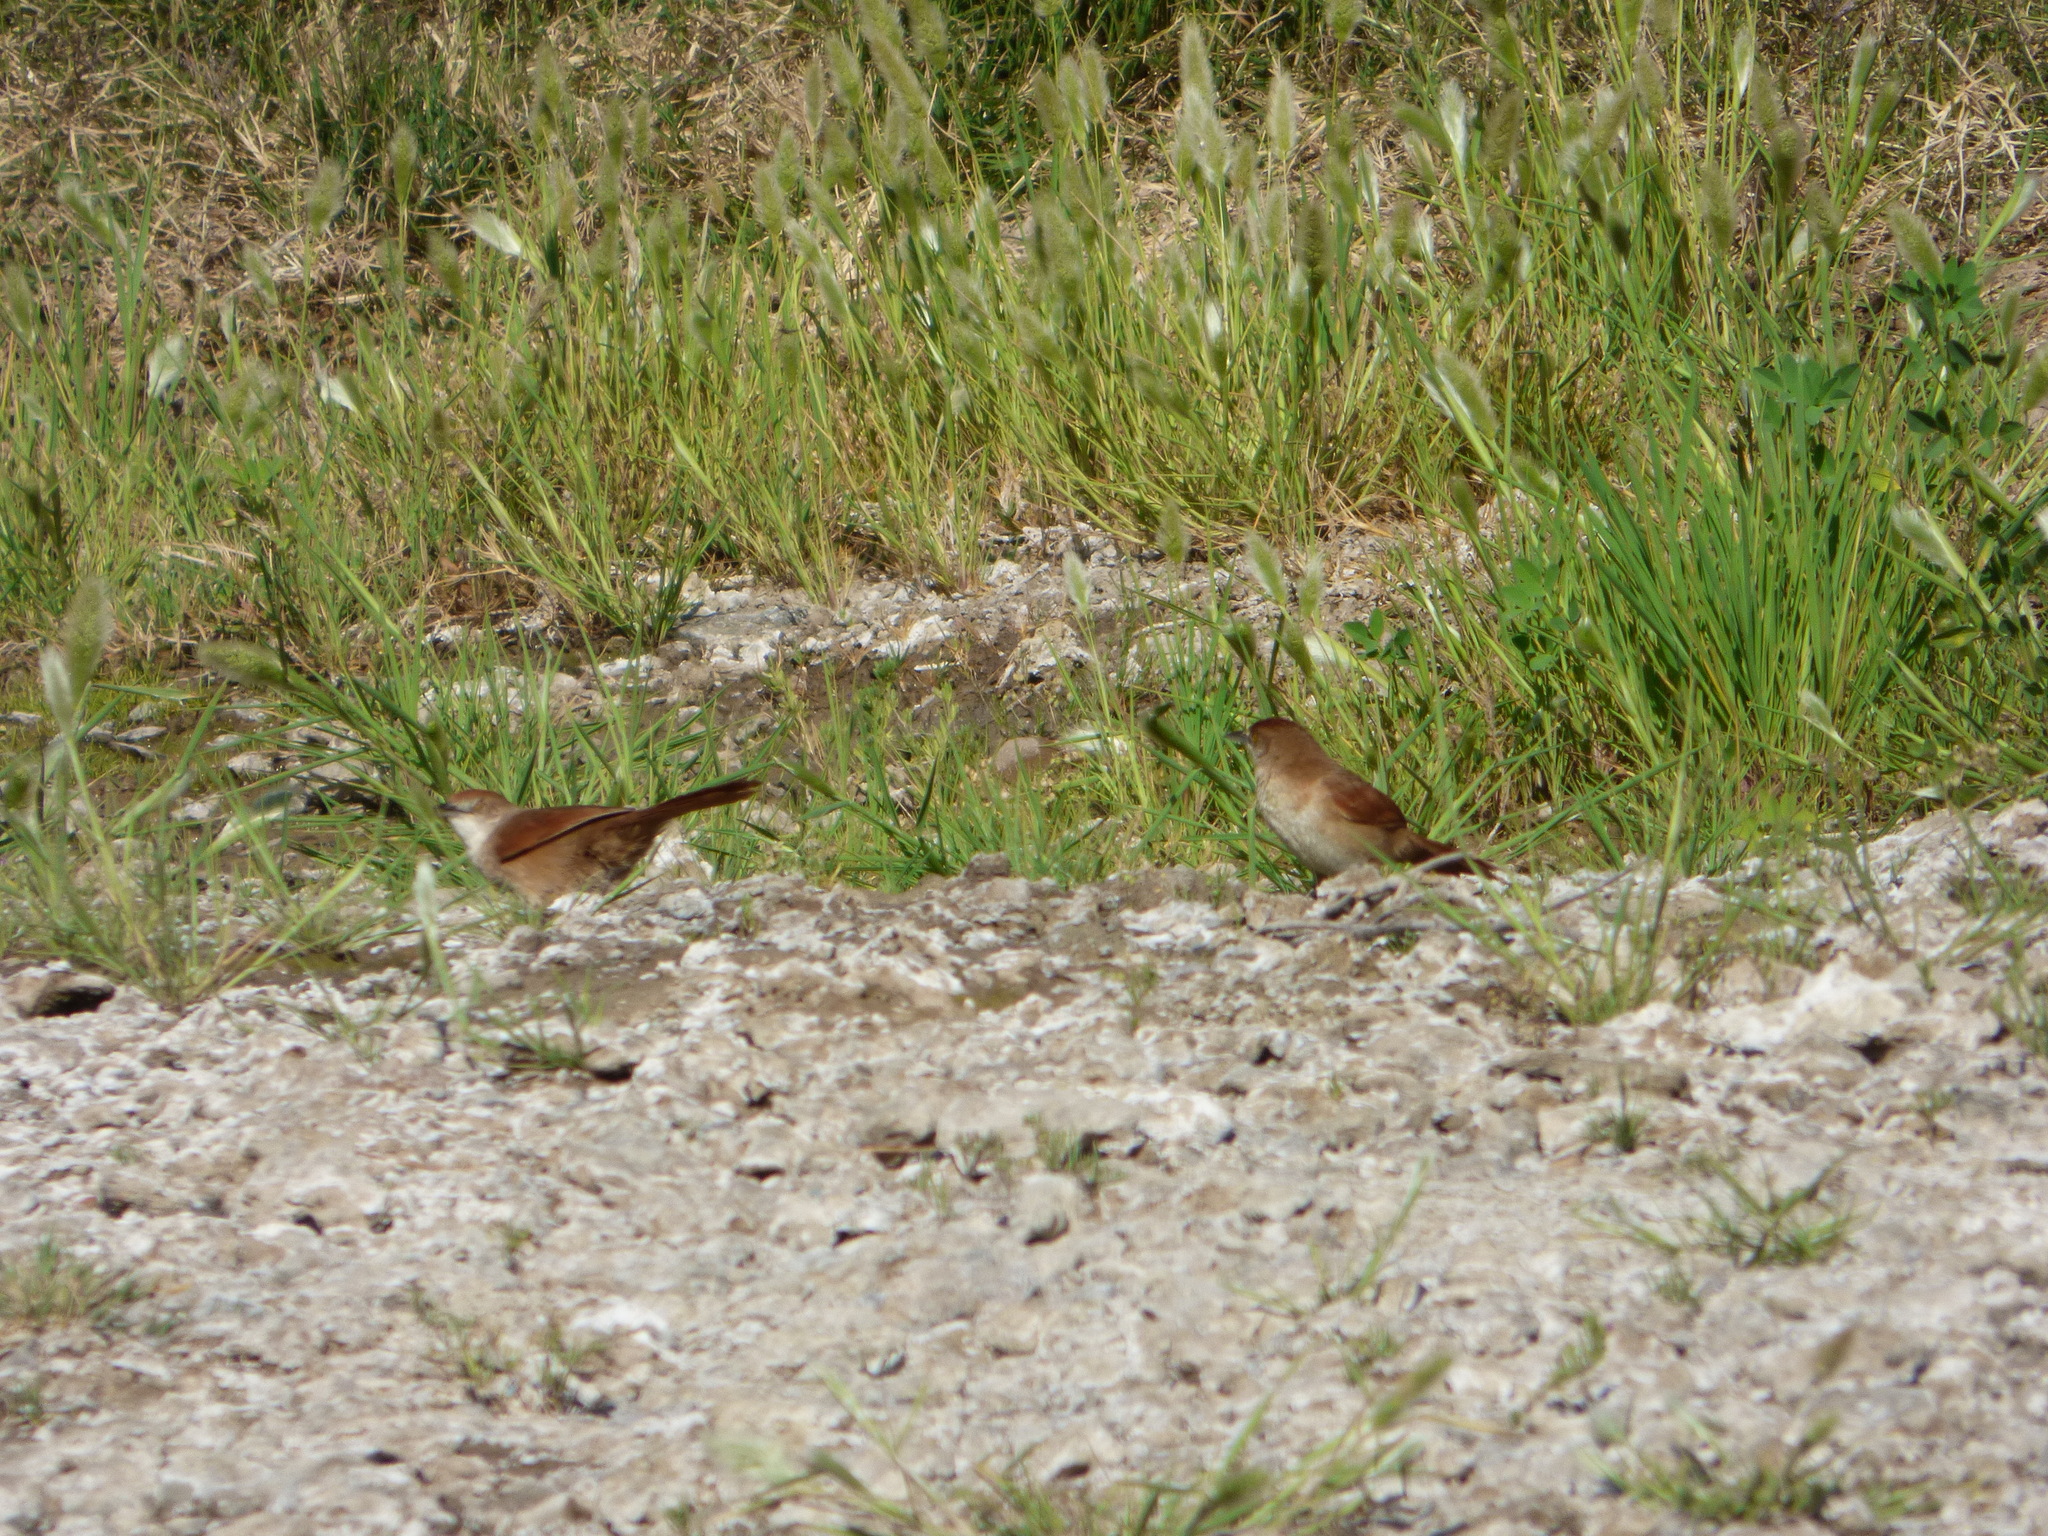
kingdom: Animalia
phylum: Chordata
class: Aves
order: Passeriformes
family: Furnariidae
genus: Phacellodomus
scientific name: Phacellodomus ruber
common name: Greater thornbird
